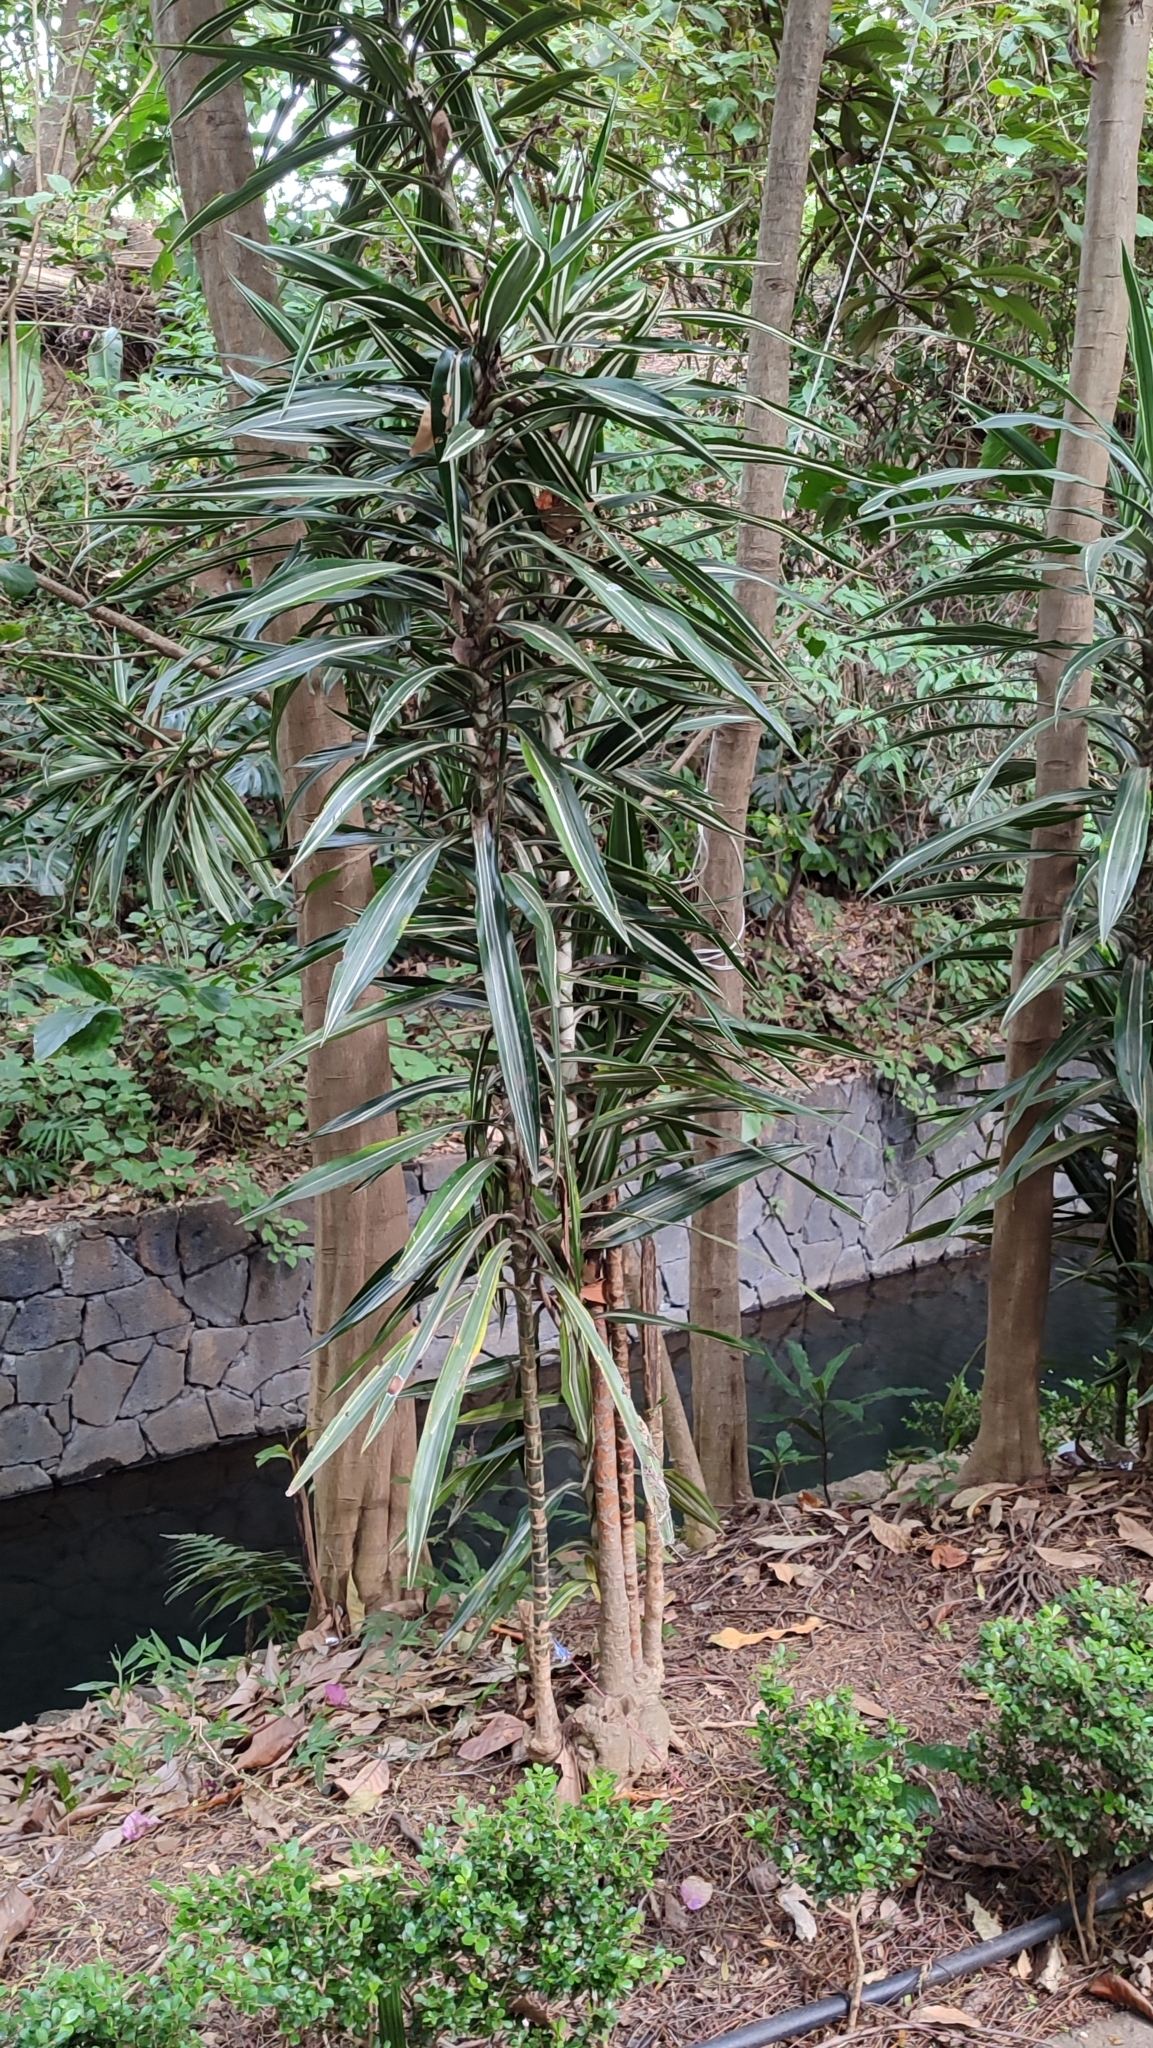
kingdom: Plantae
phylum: Tracheophyta
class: Liliopsida
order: Asparagales
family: Asparagaceae
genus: Dracaena
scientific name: Dracaena fragrans
